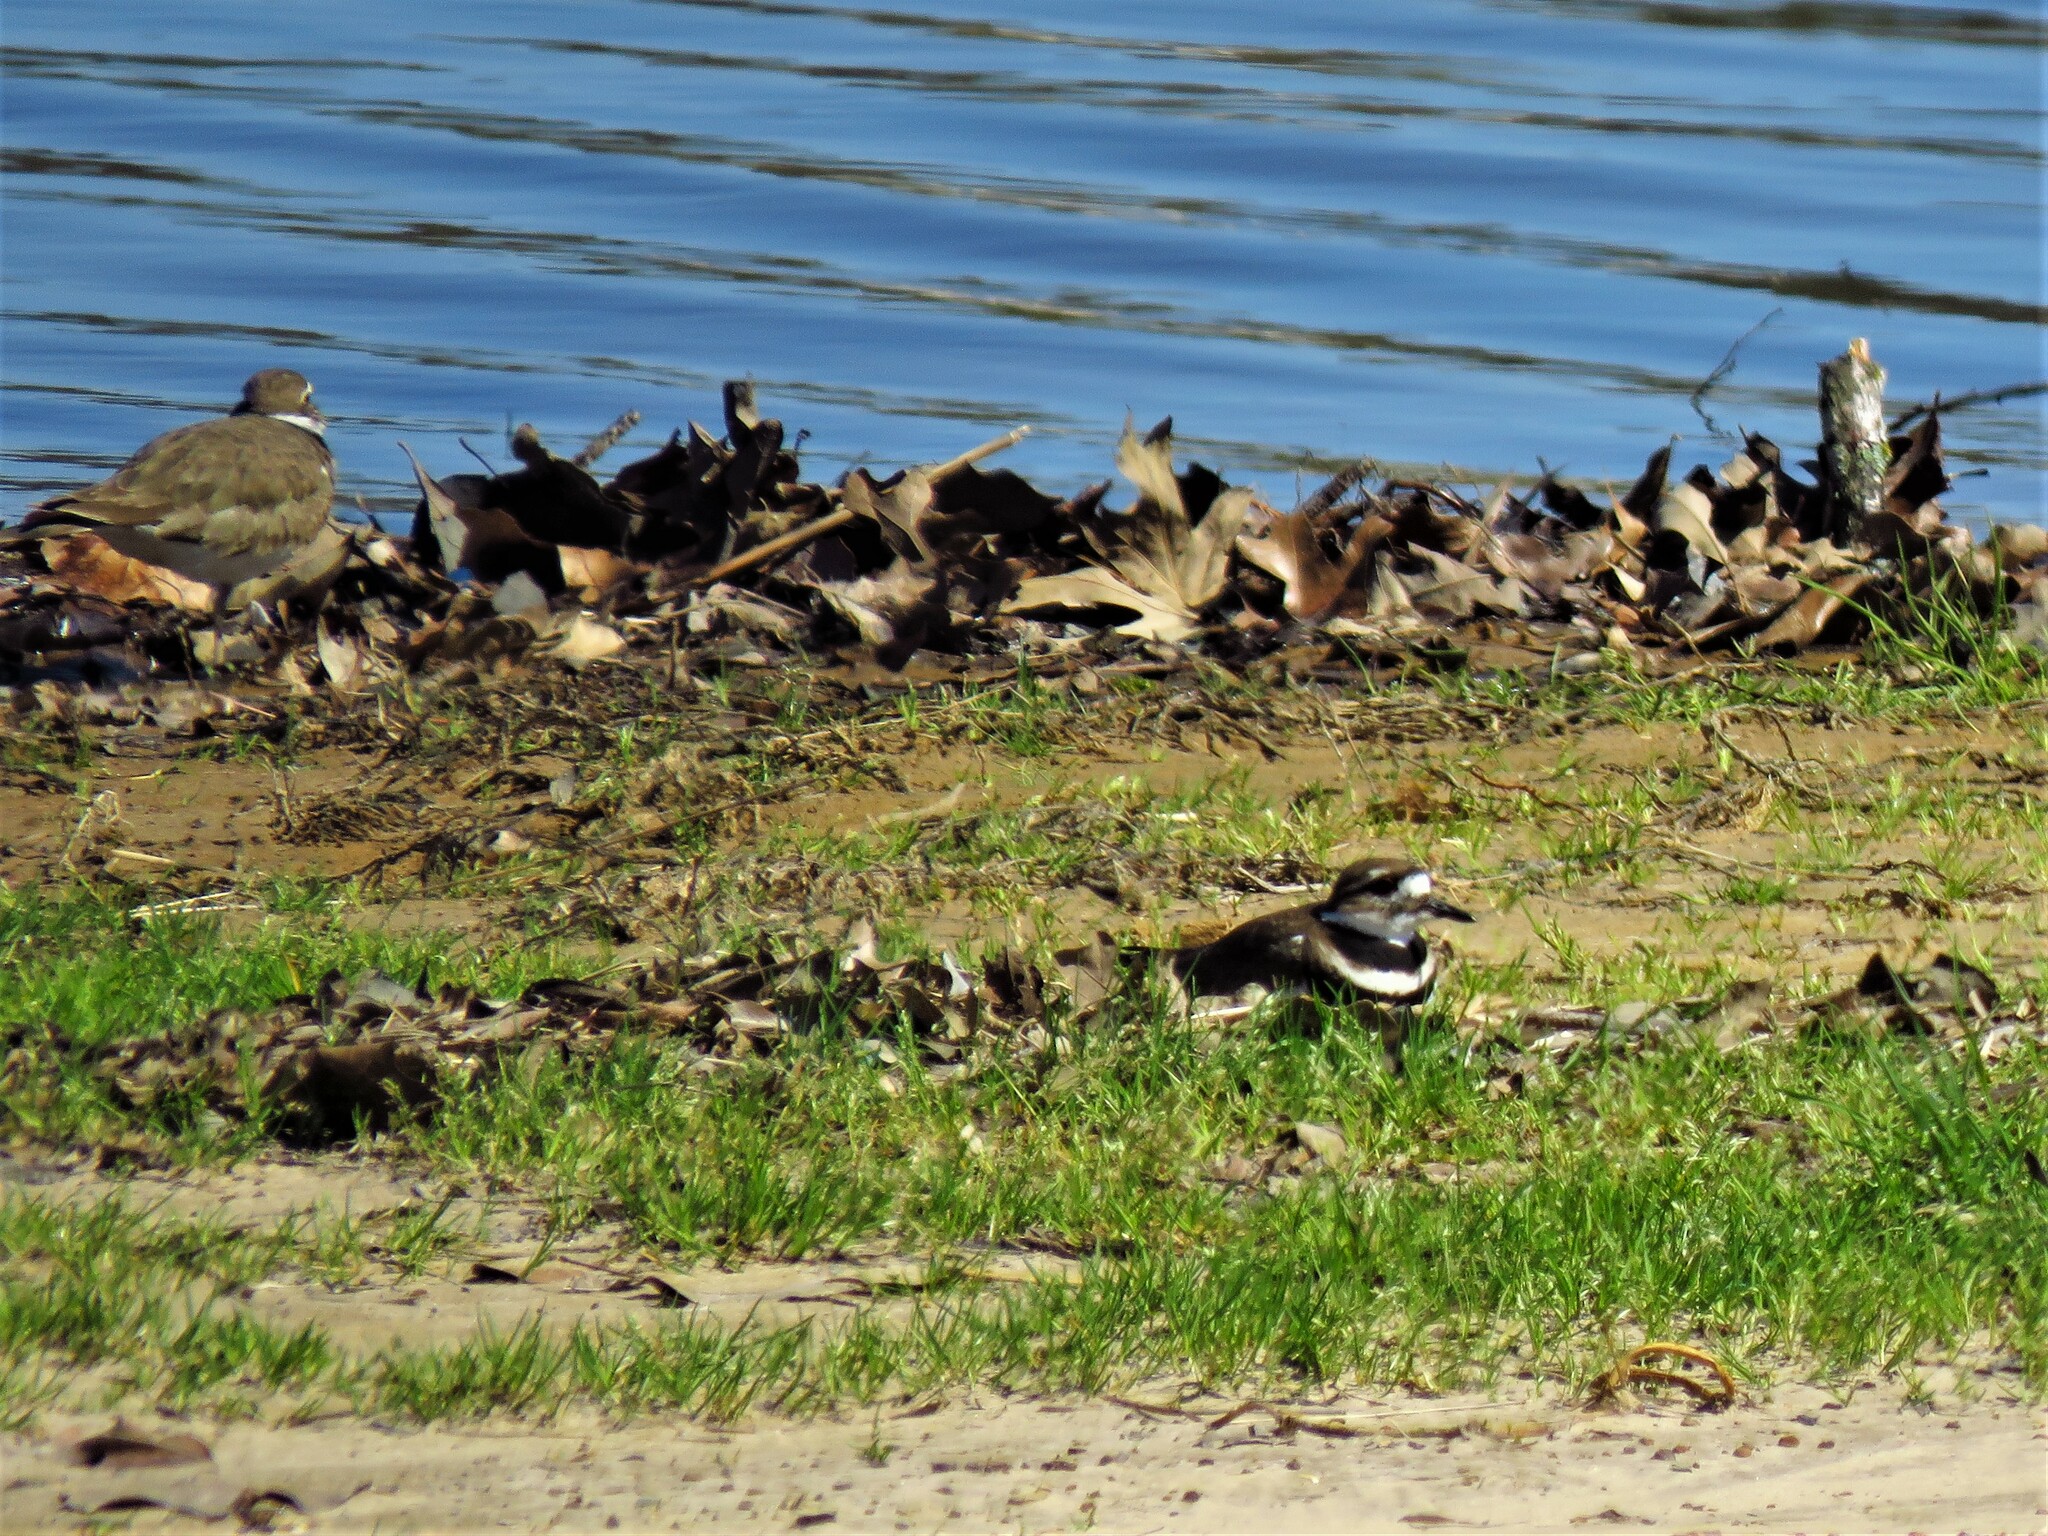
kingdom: Animalia
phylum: Chordata
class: Aves
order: Charadriiformes
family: Charadriidae
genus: Charadrius
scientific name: Charadrius vociferus
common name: Killdeer
